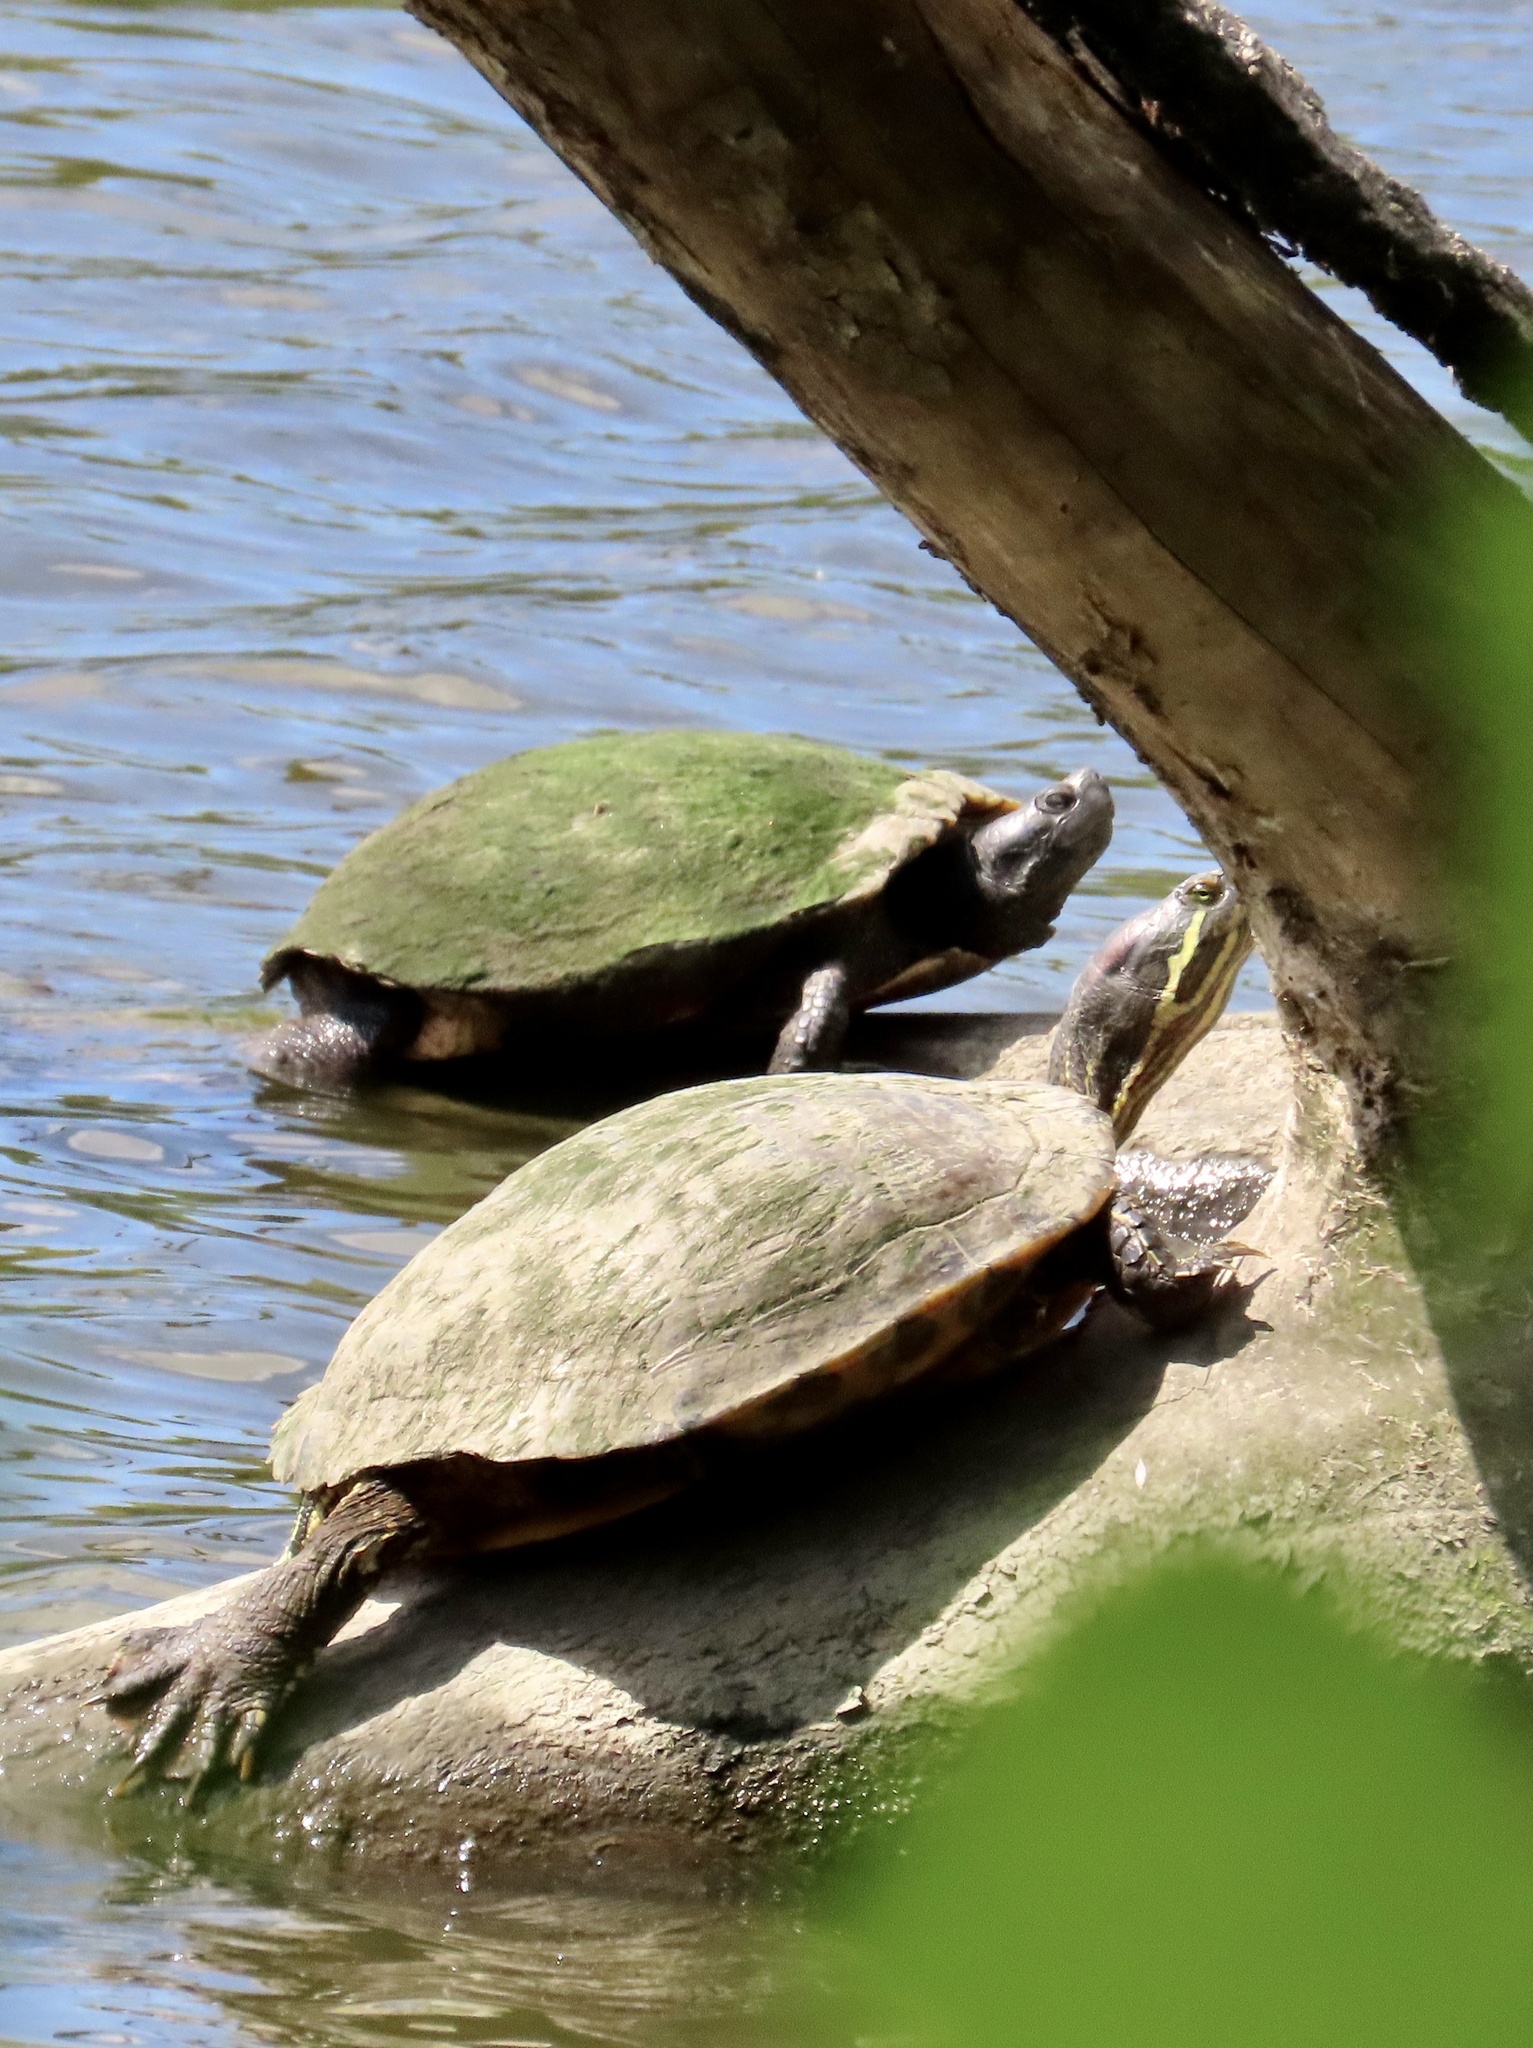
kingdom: Animalia
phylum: Chordata
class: Testudines
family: Emydidae
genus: Trachemys
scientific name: Trachemys scripta
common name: Slider
